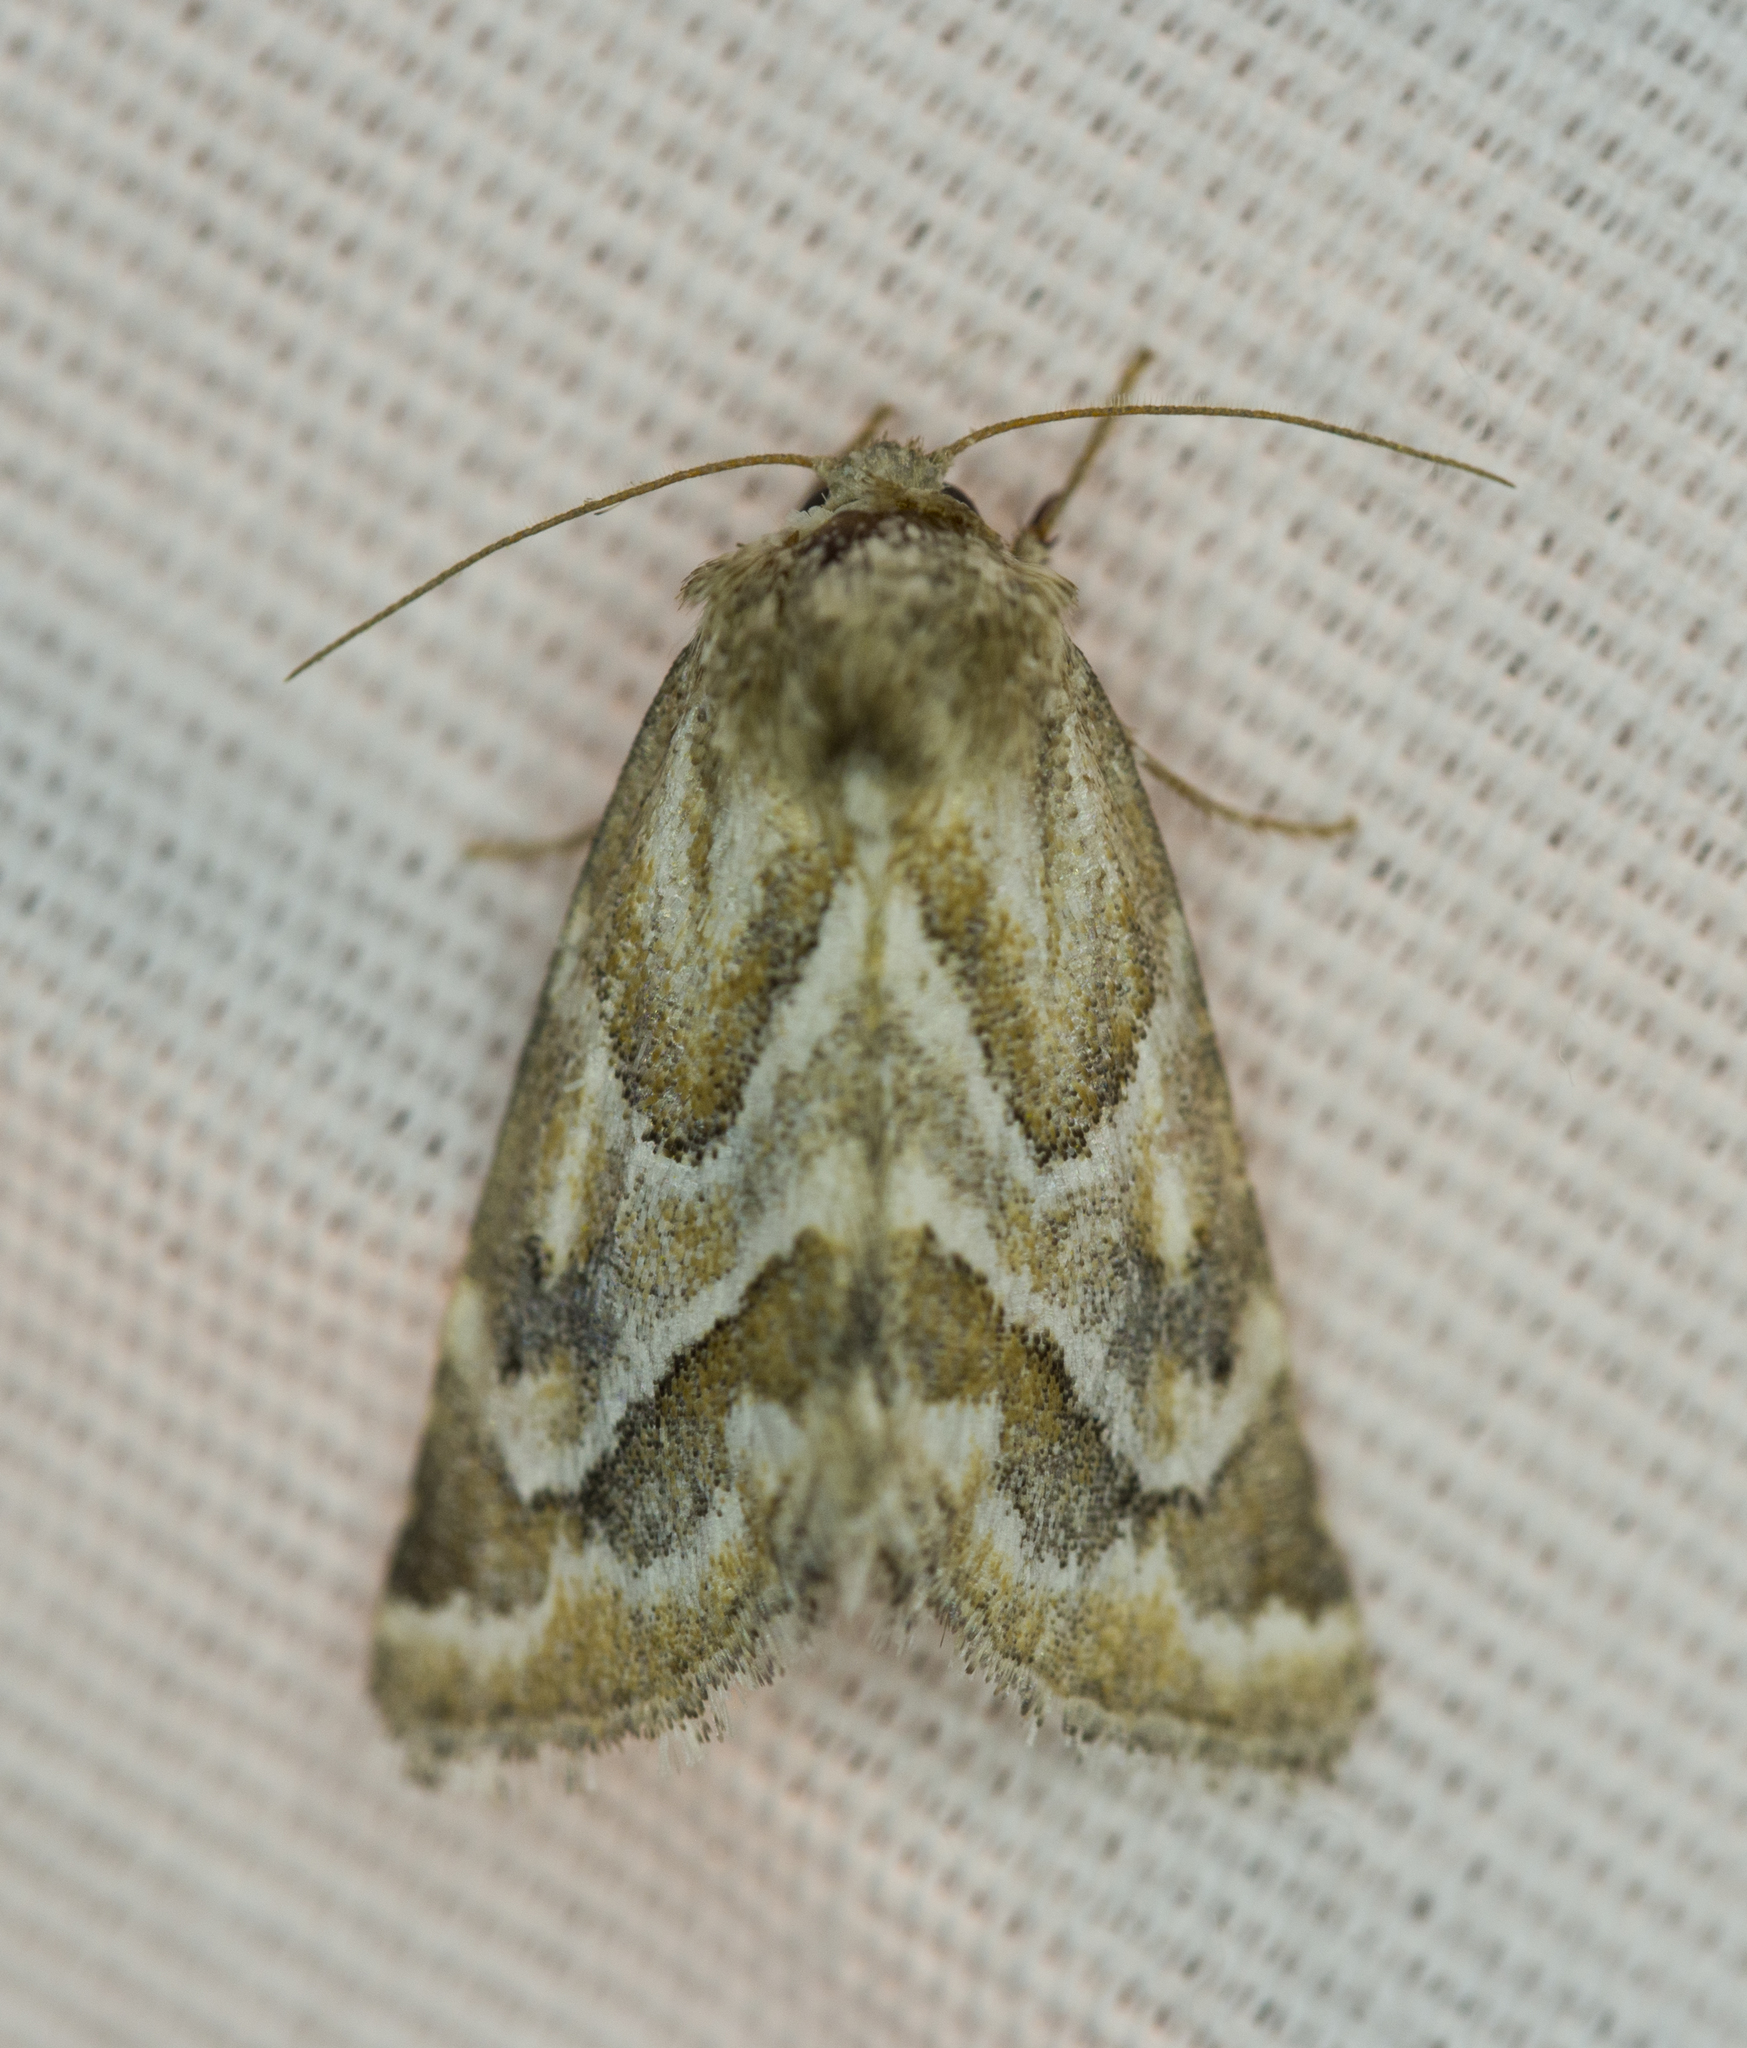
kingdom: Animalia
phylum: Arthropoda
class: Insecta
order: Lepidoptera
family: Noctuidae
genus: Schinia
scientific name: Schinia acutilinea
